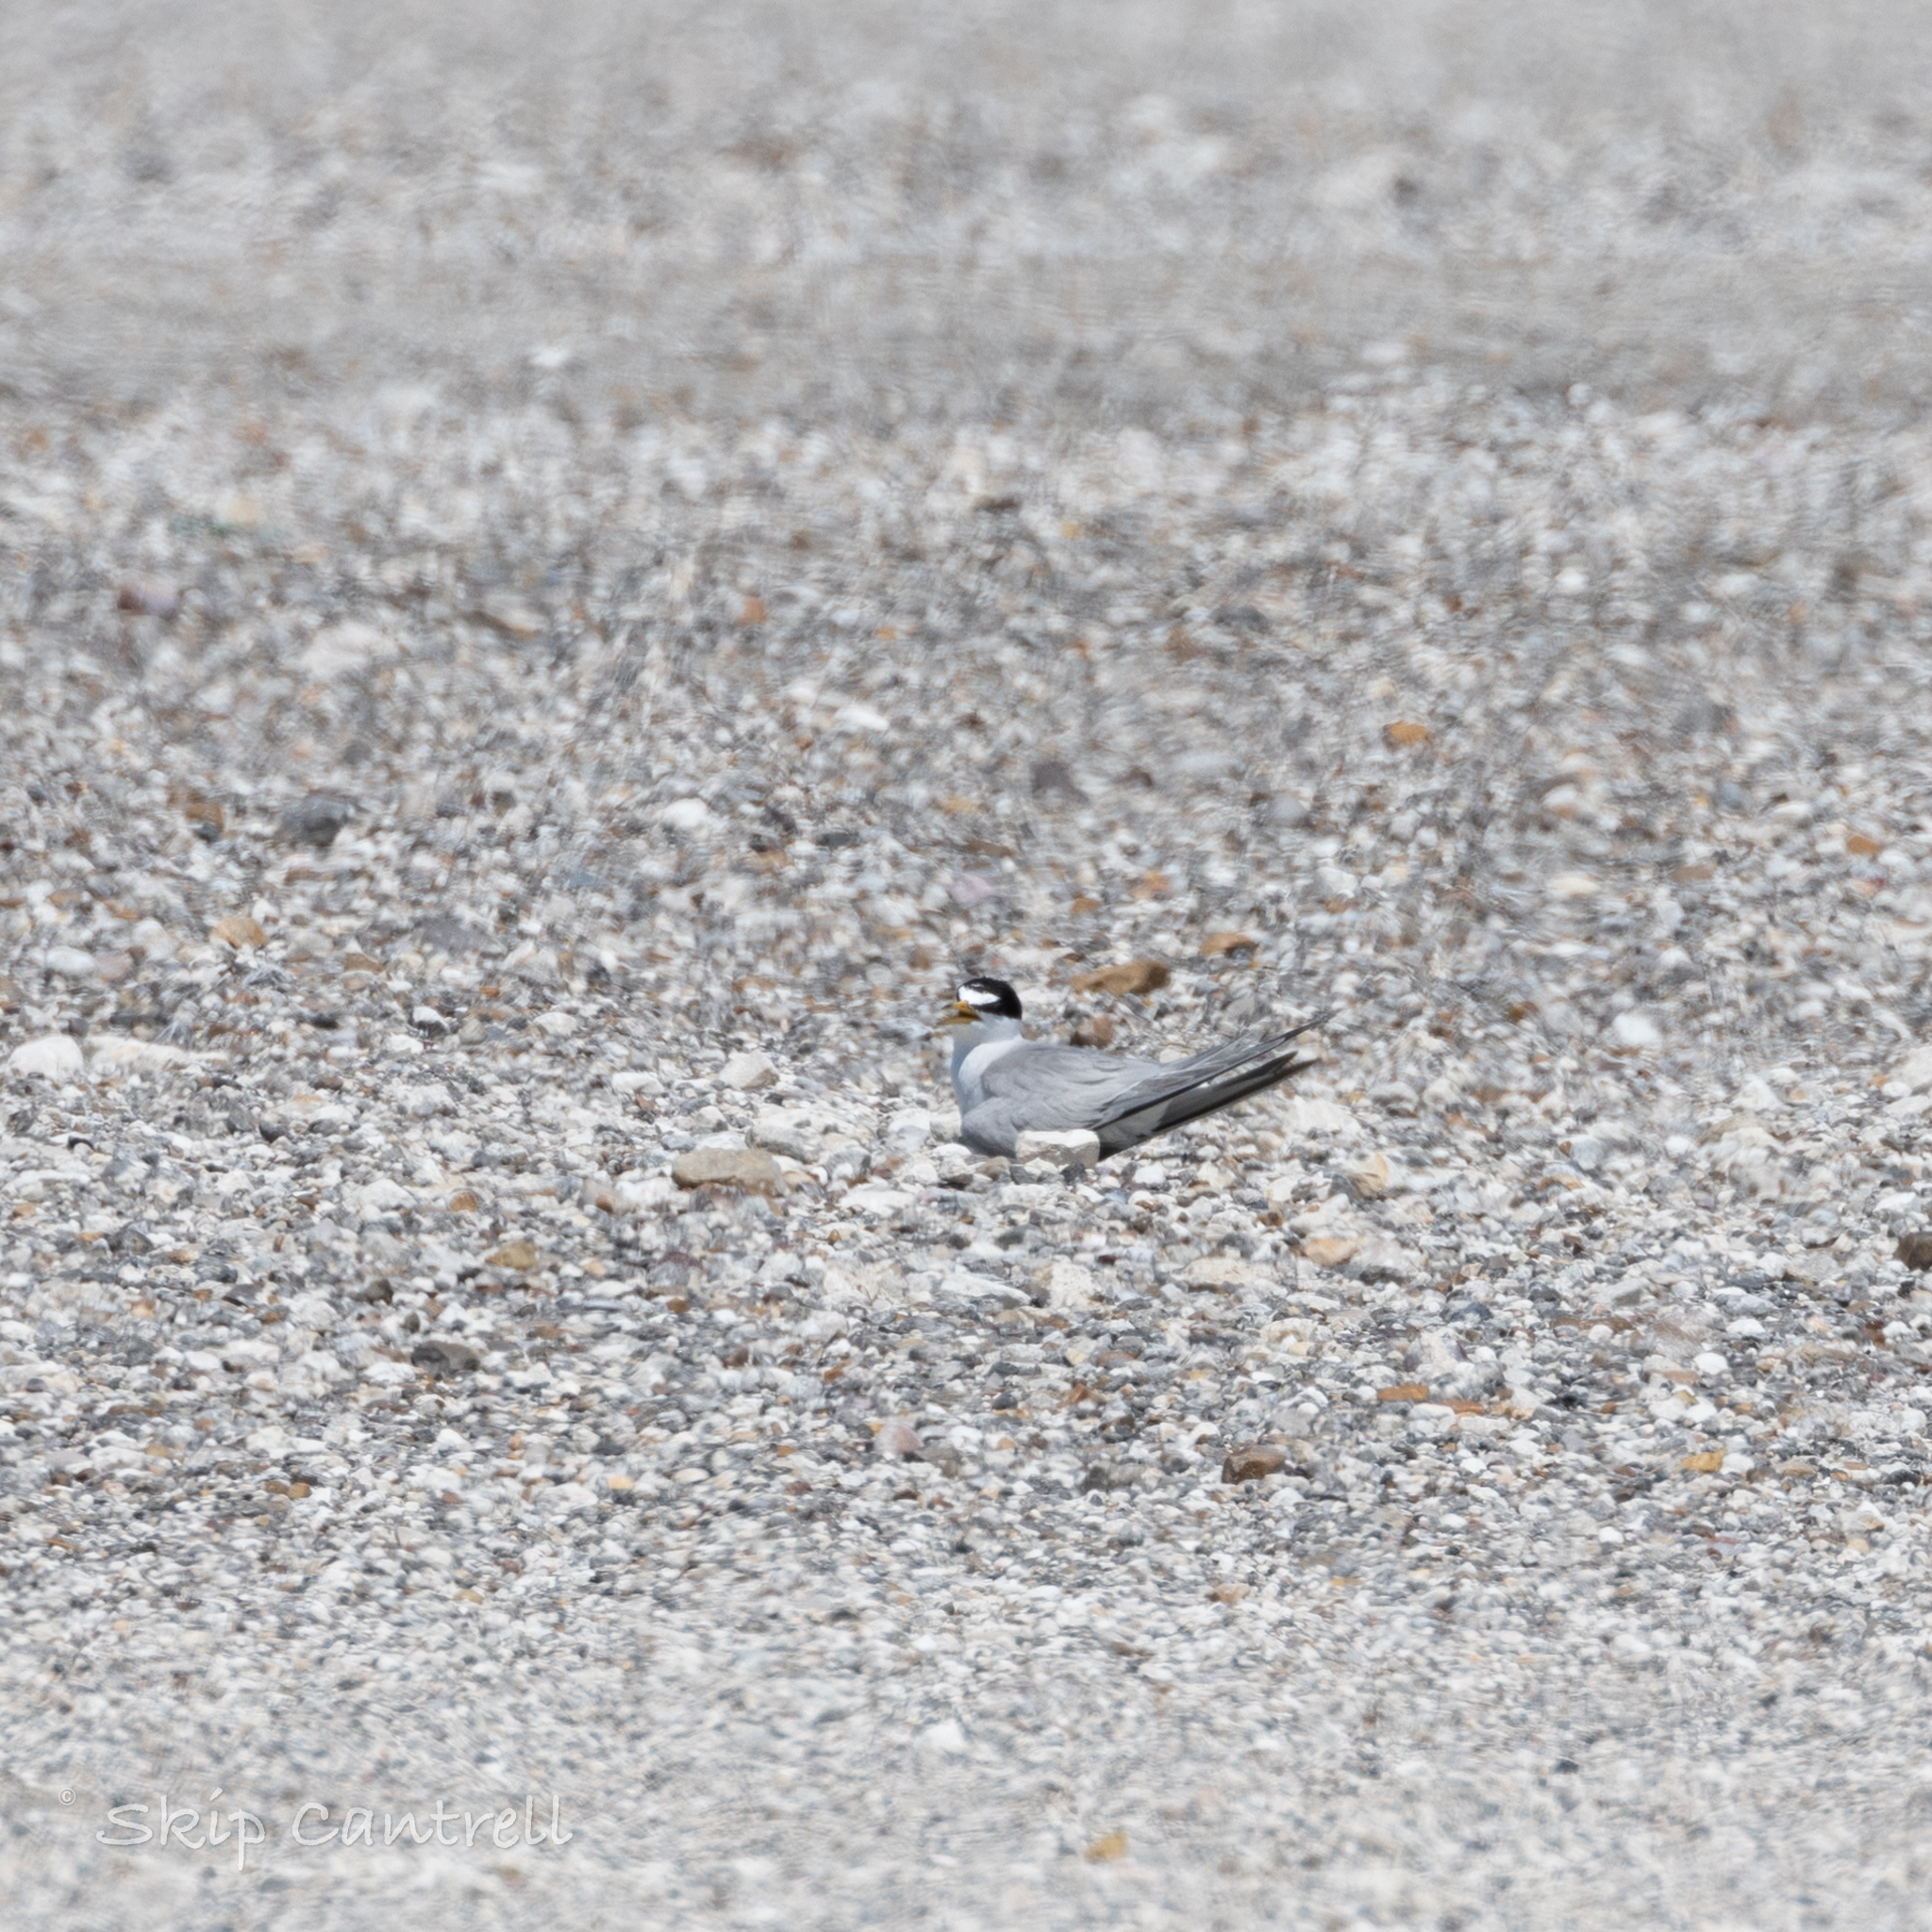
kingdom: Animalia
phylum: Chordata
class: Aves
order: Charadriiformes
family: Laridae
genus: Sternula
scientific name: Sternula antillarum
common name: Least tern
